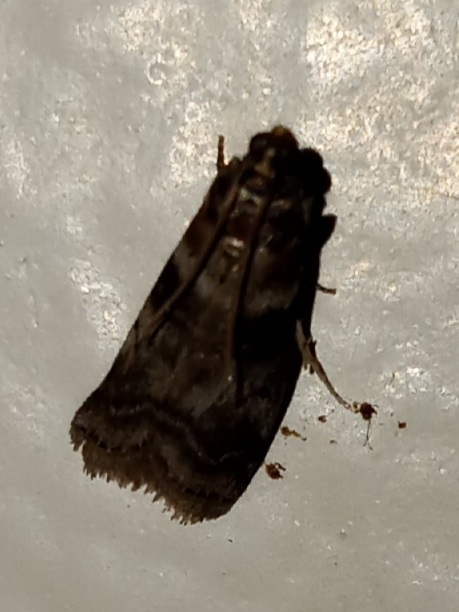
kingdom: Animalia
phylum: Arthropoda
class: Insecta
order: Lepidoptera
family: Pyralidae
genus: Sciota
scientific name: Sciota uvinella
